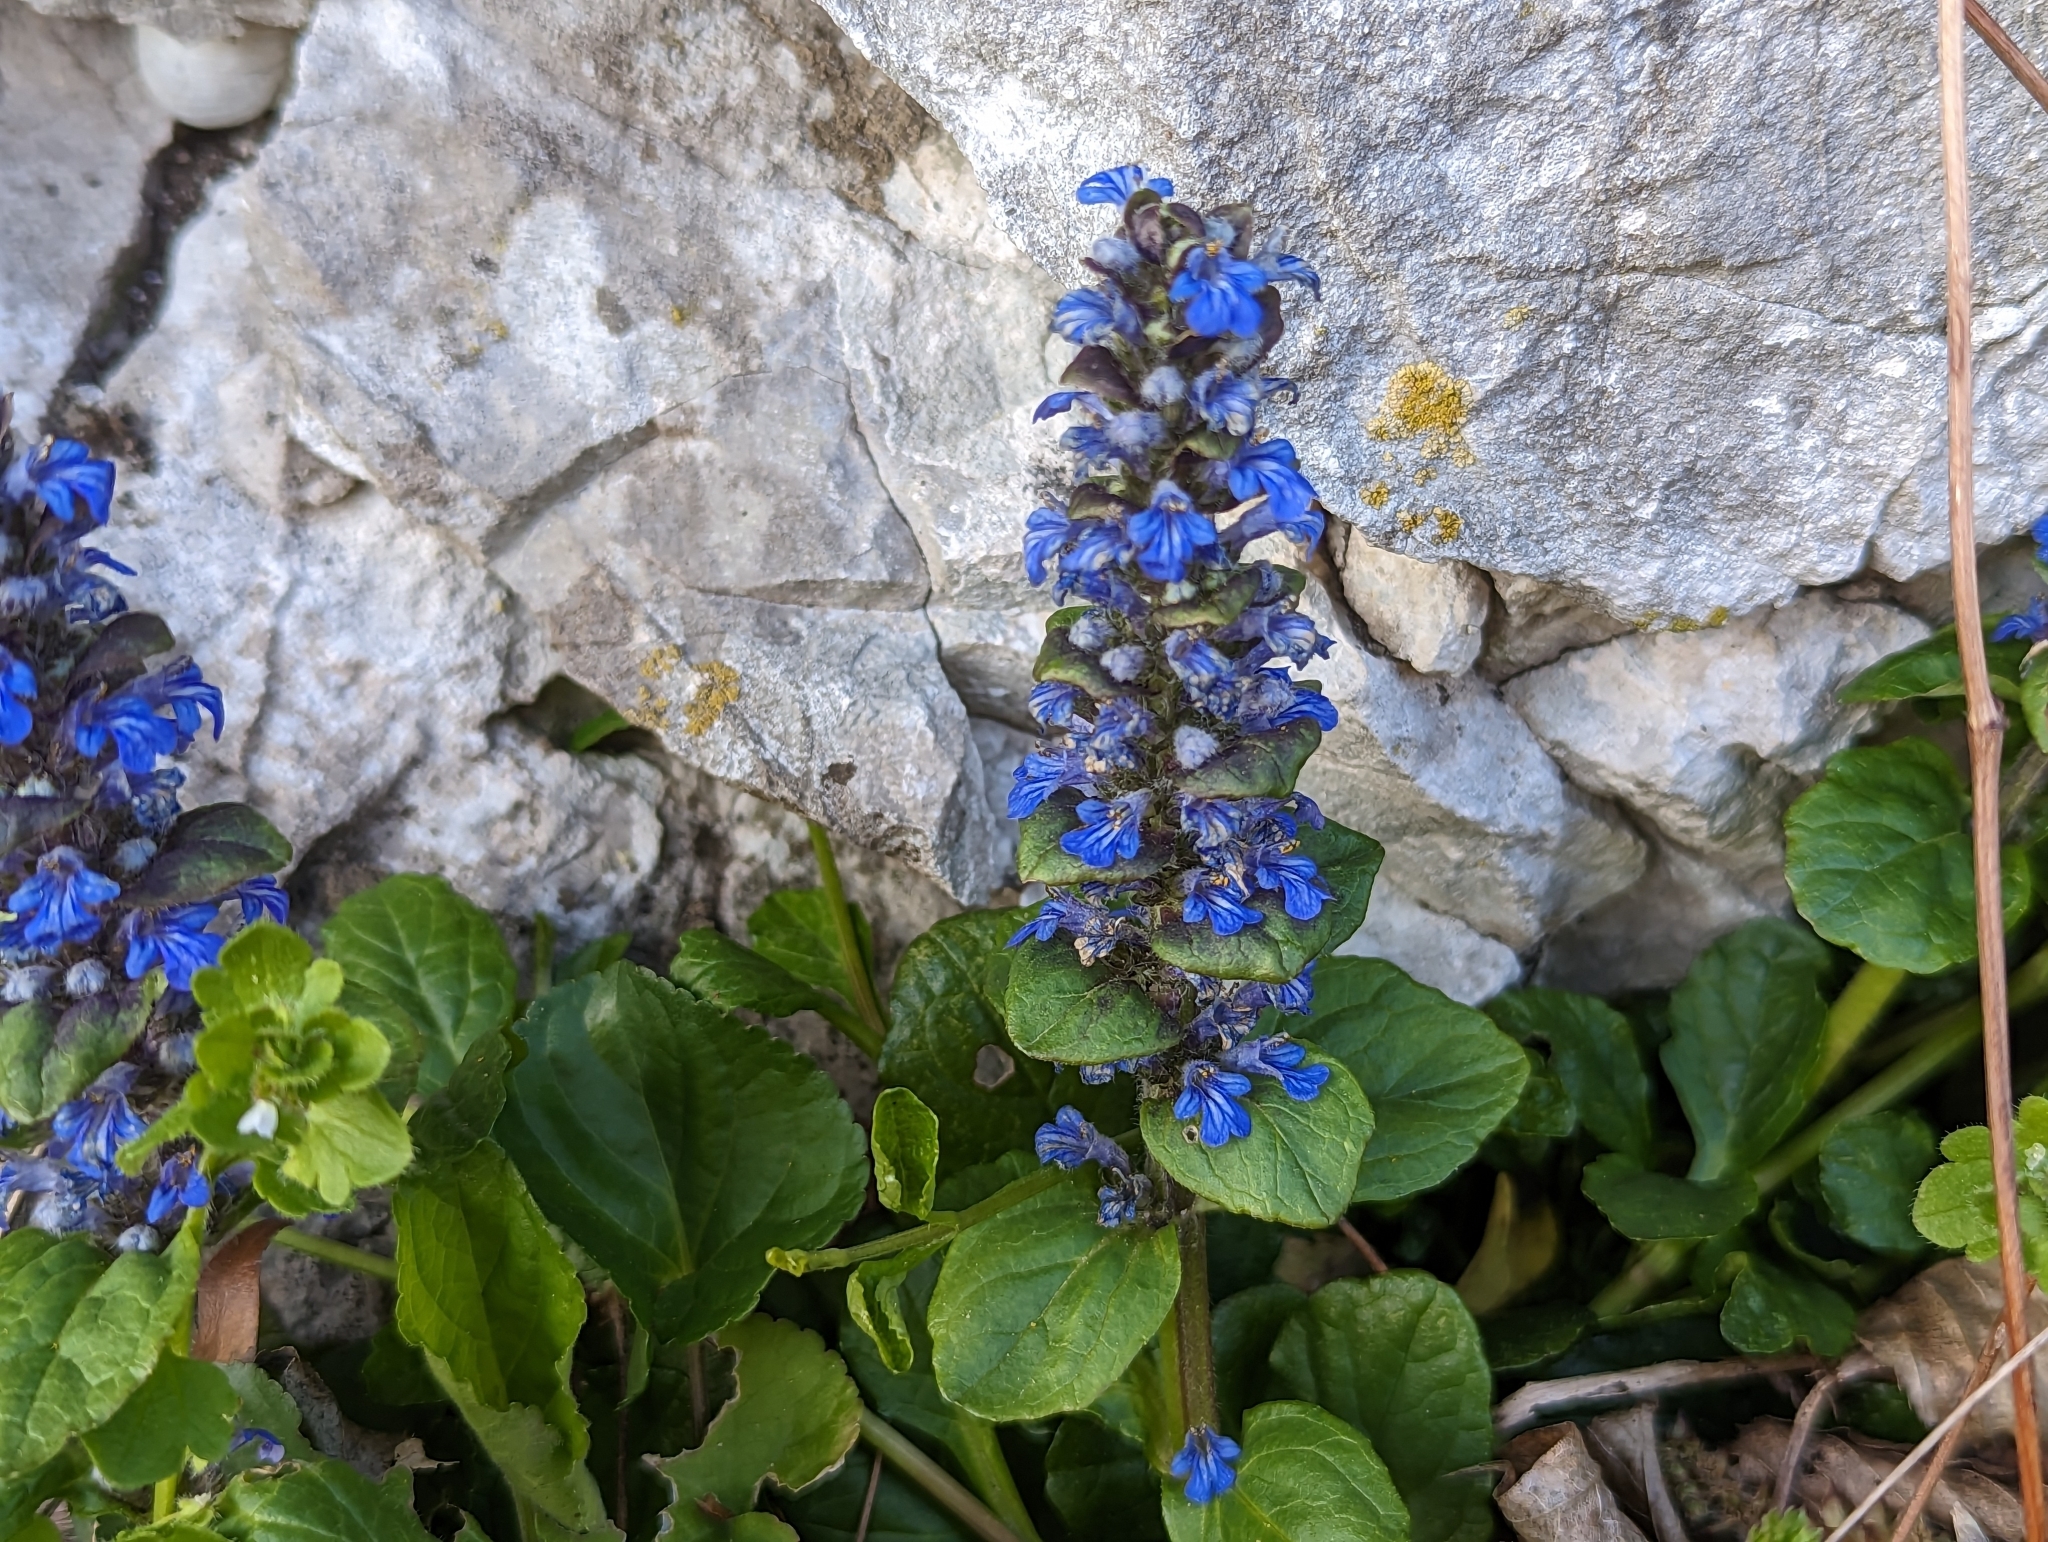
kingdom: Plantae
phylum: Tracheophyta
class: Magnoliopsida
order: Lamiales
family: Lamiaceae
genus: Ajuga
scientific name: Ajuga reptans
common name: Bugle
